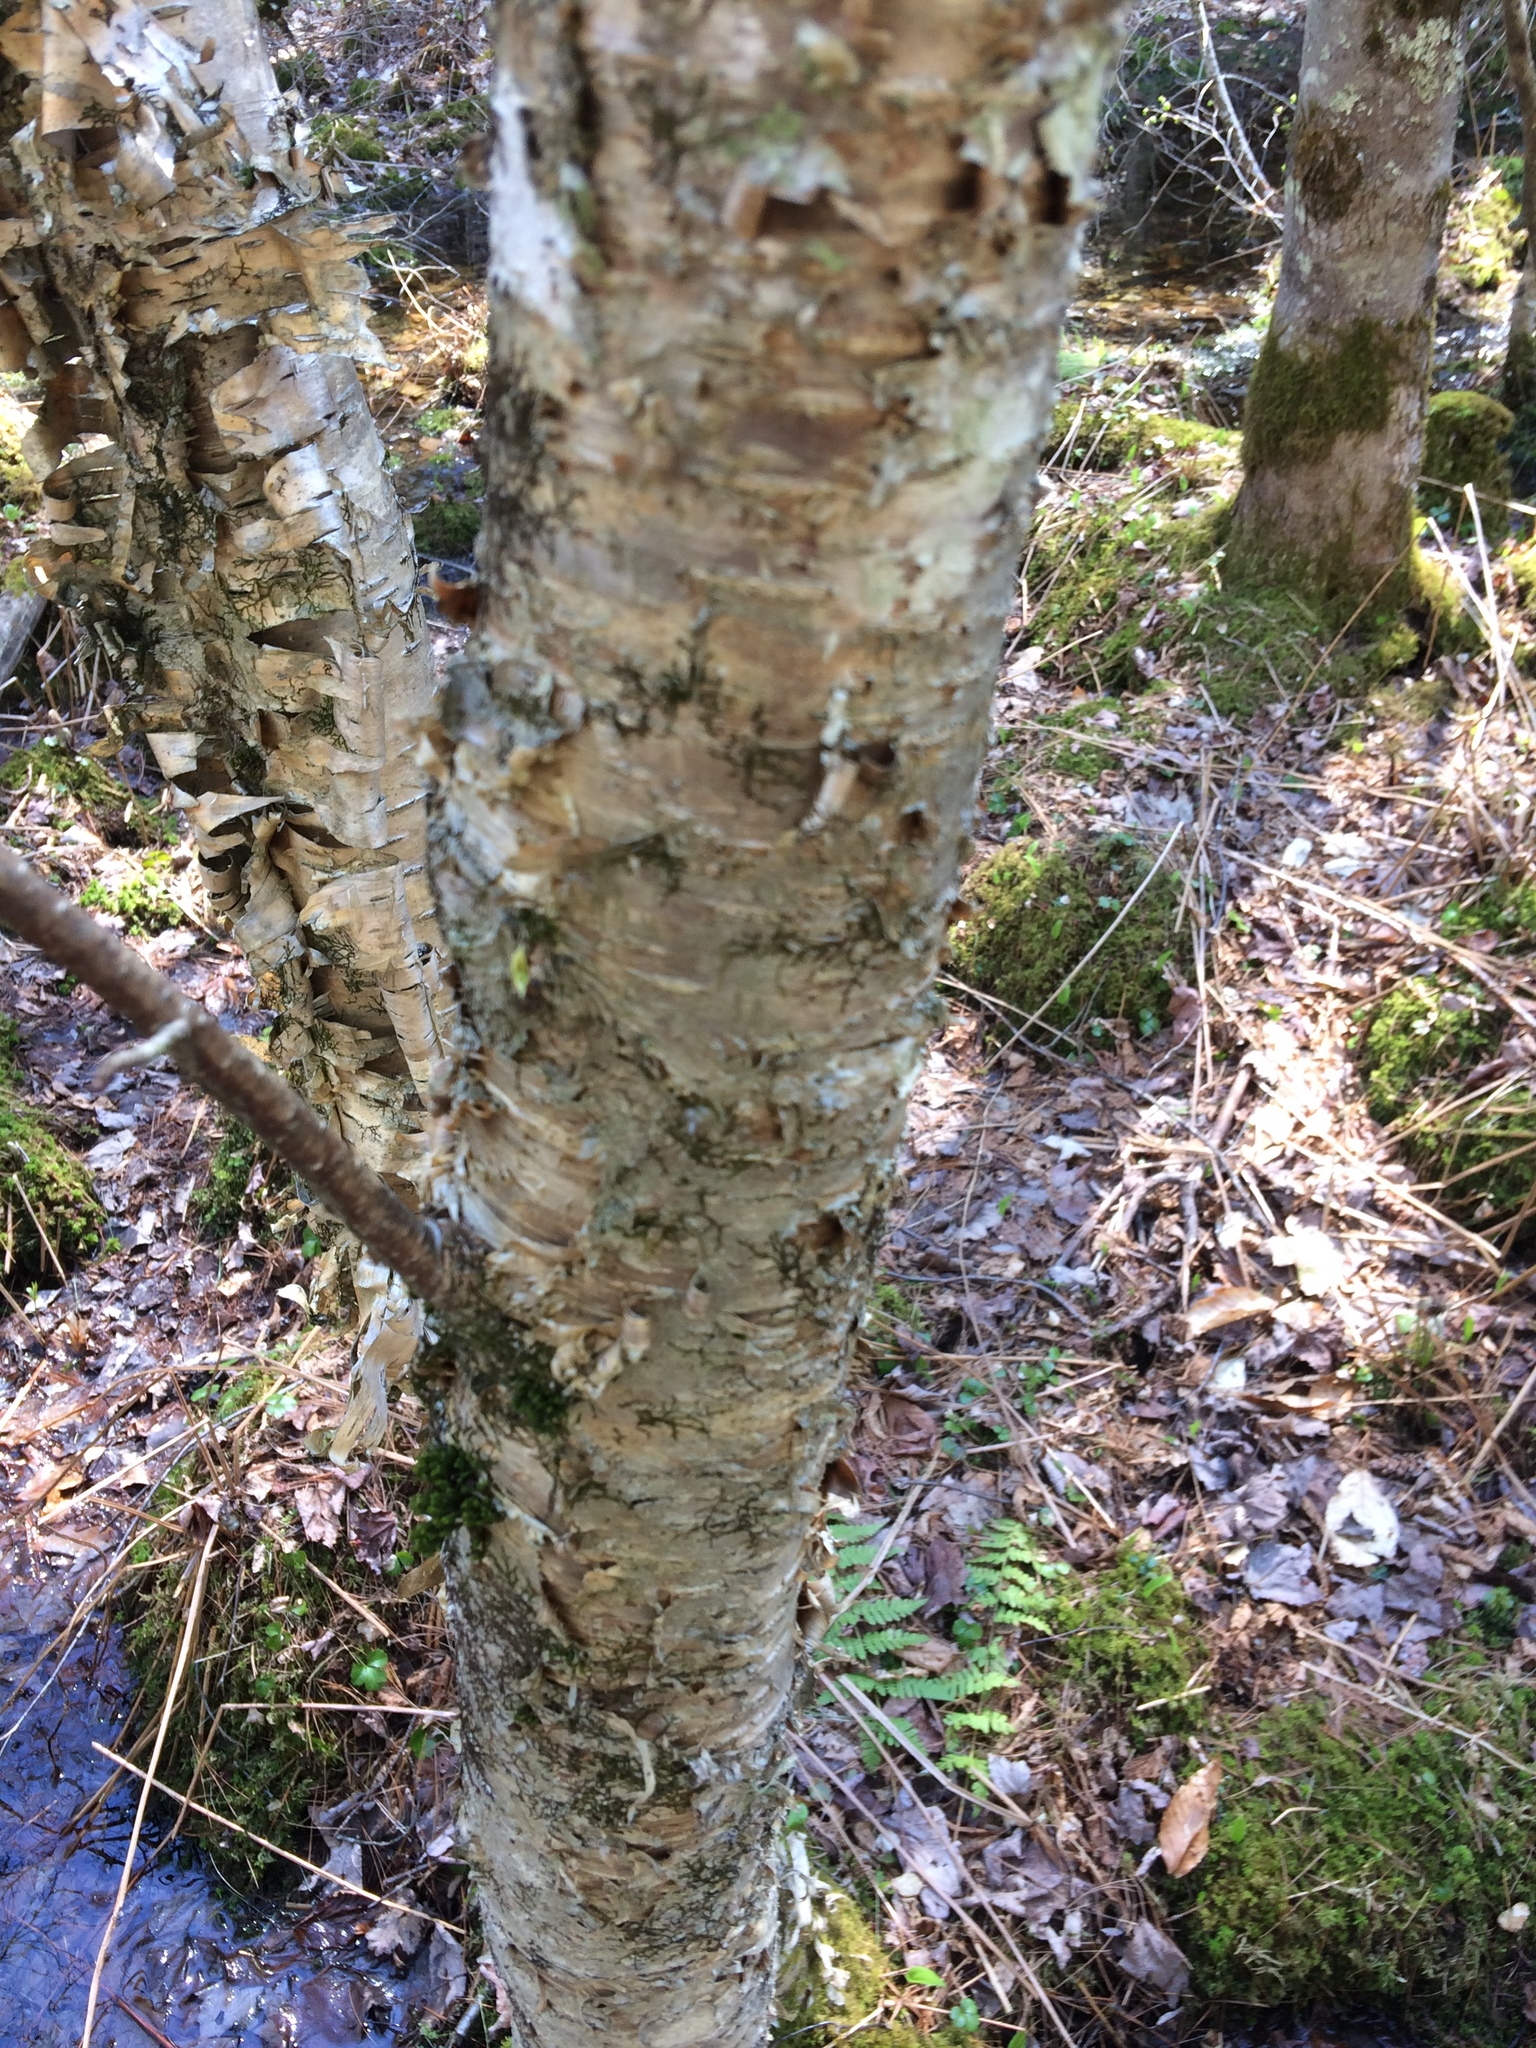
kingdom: Plantae
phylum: Tracheophyta
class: Magnoliopsida
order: Fagales
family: Betulaceae
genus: Betula
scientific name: Betula alleghaniensis
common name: Yellow birch
